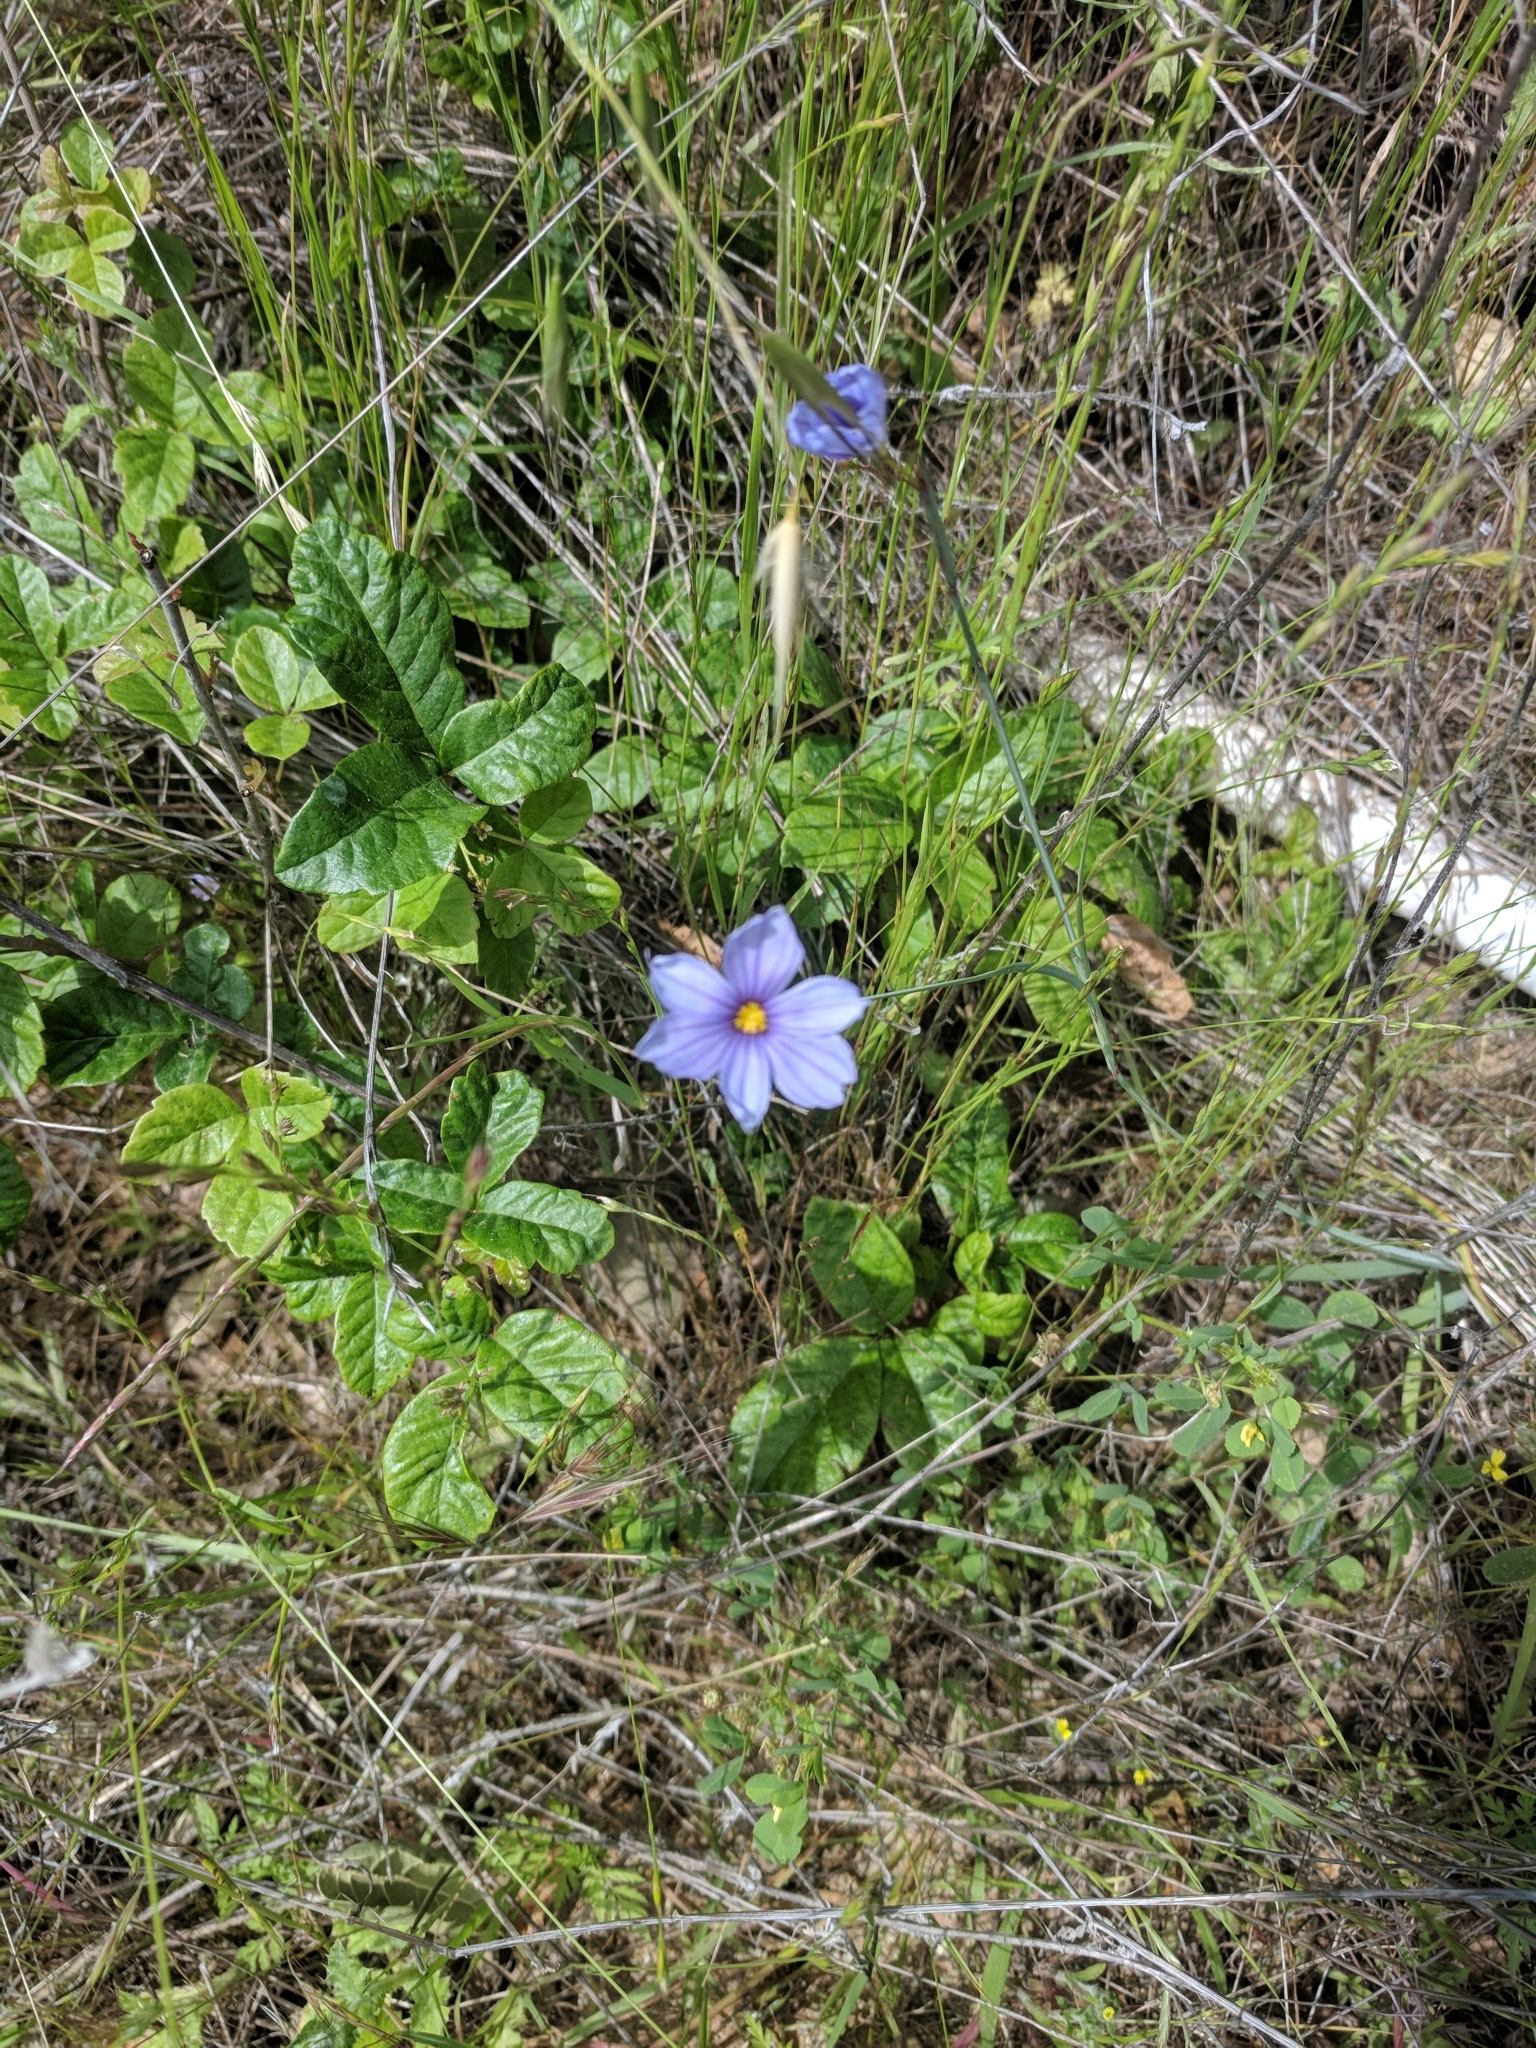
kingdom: Plantae
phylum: Tracheophyta
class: Liliopsida
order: Asparagales
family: Iridaceae
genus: Sisyrinchium
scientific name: Sisyrinchium bellum
